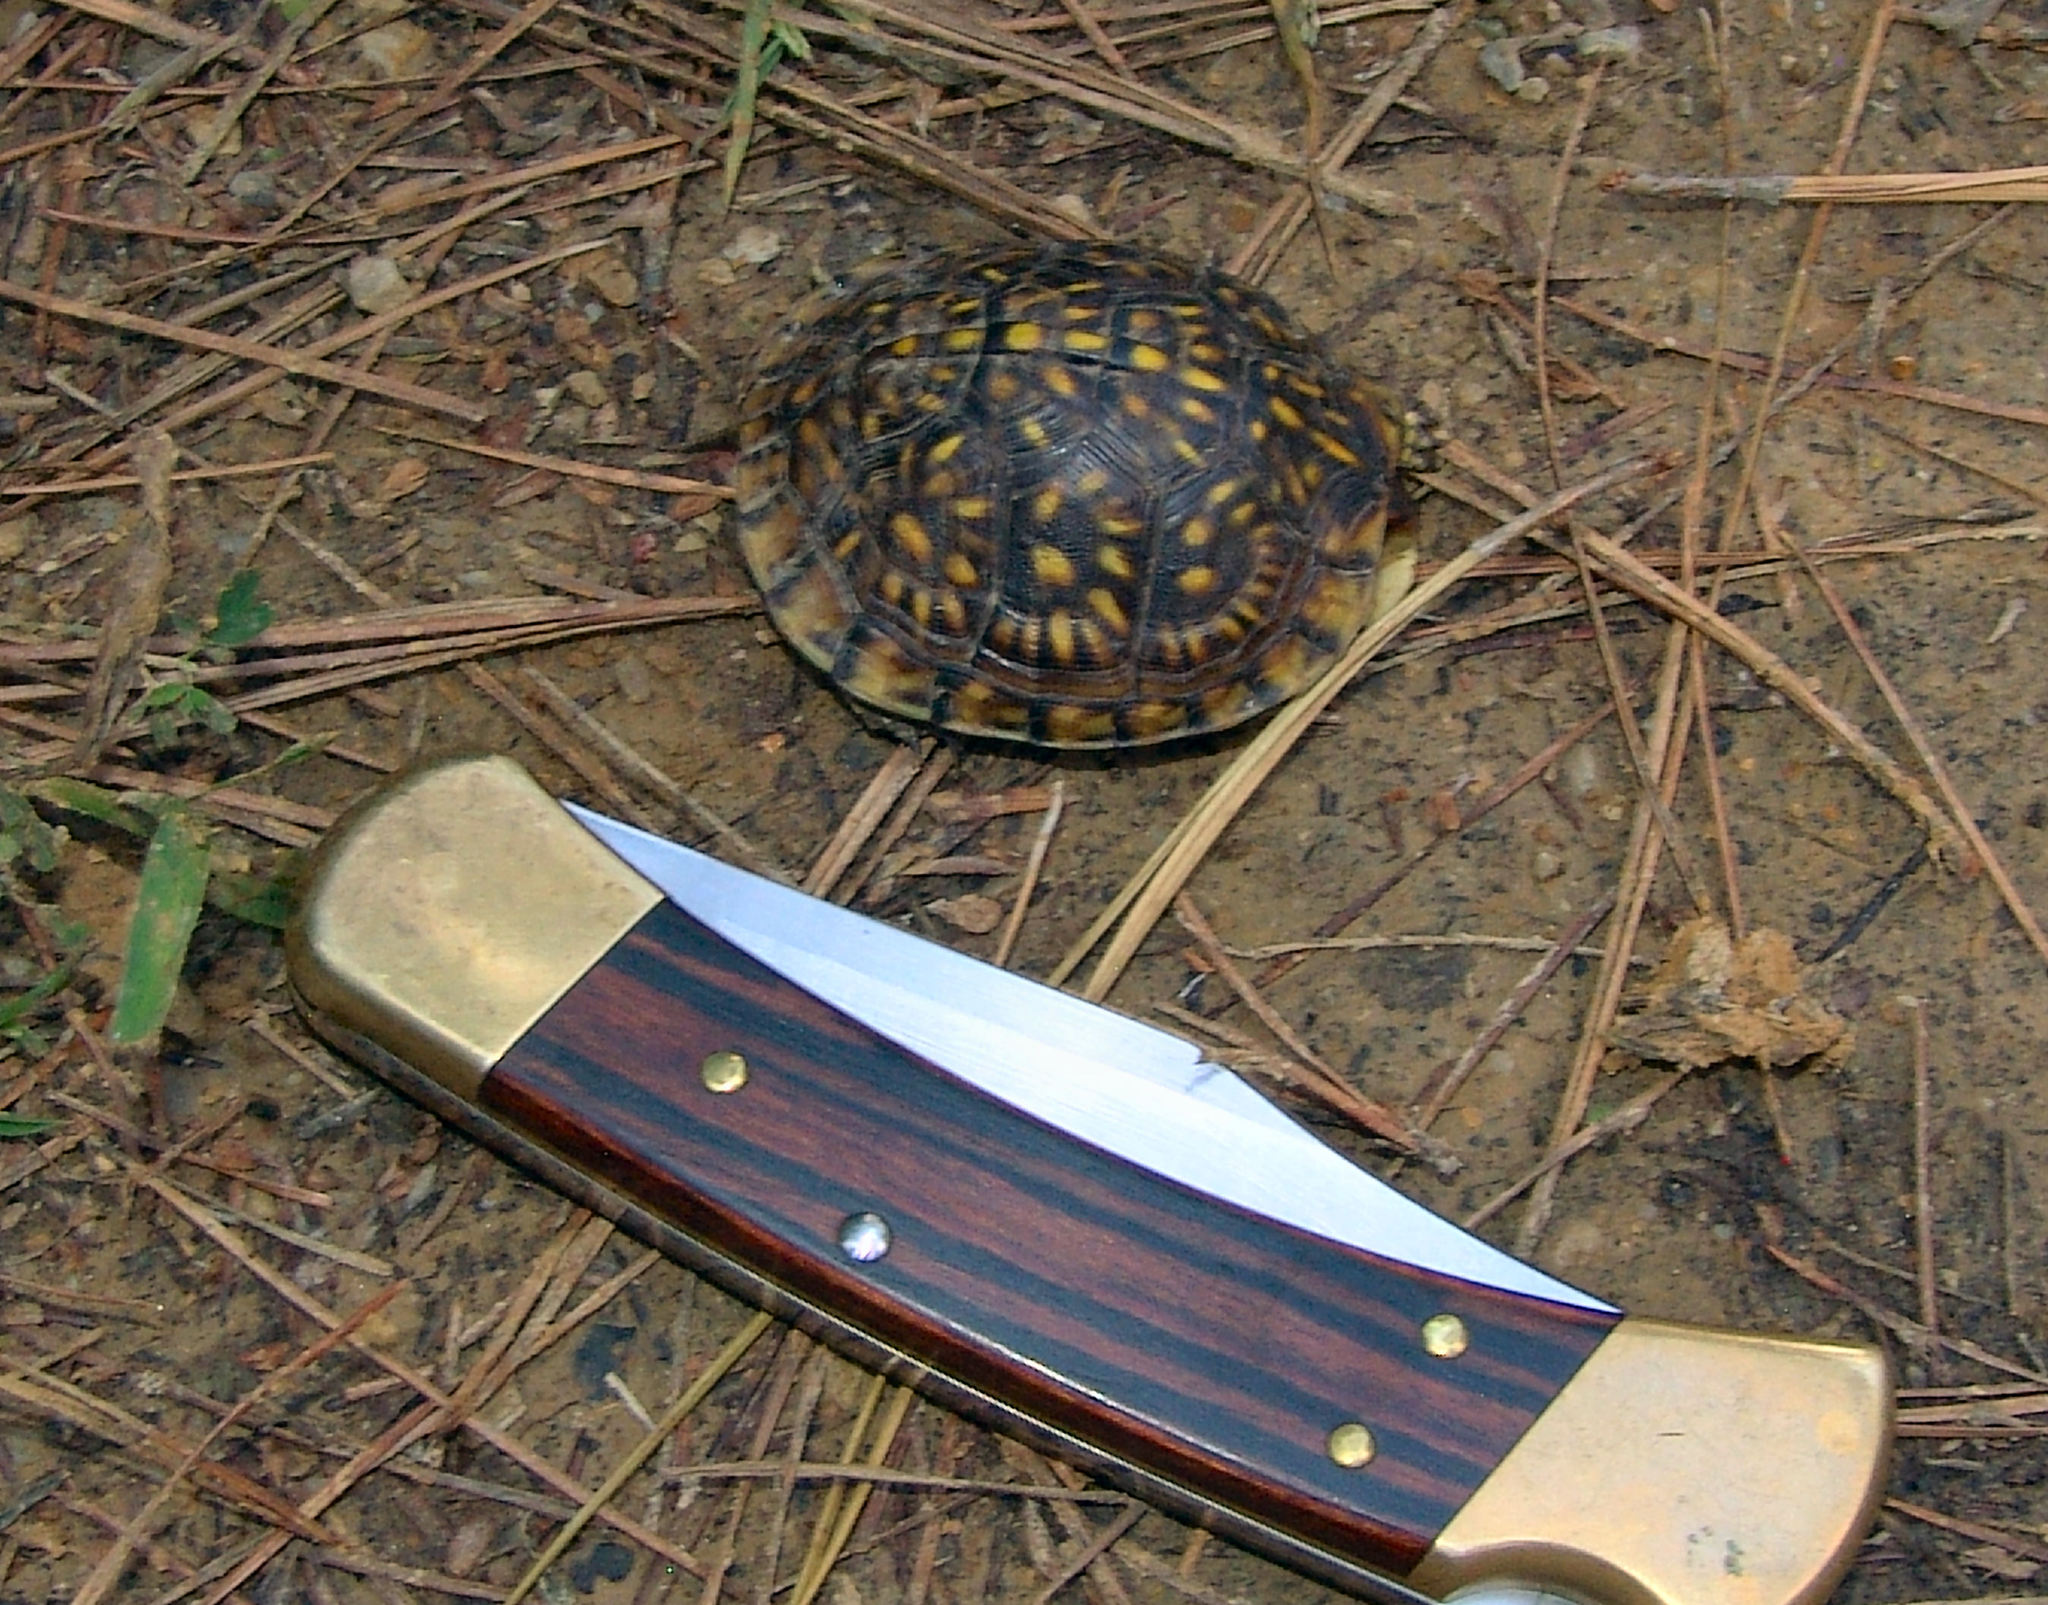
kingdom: Animalia
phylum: Chordata
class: Testudines
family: Emydidae
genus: Terrapene
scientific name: Terrapene carolina
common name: Common box turtle
